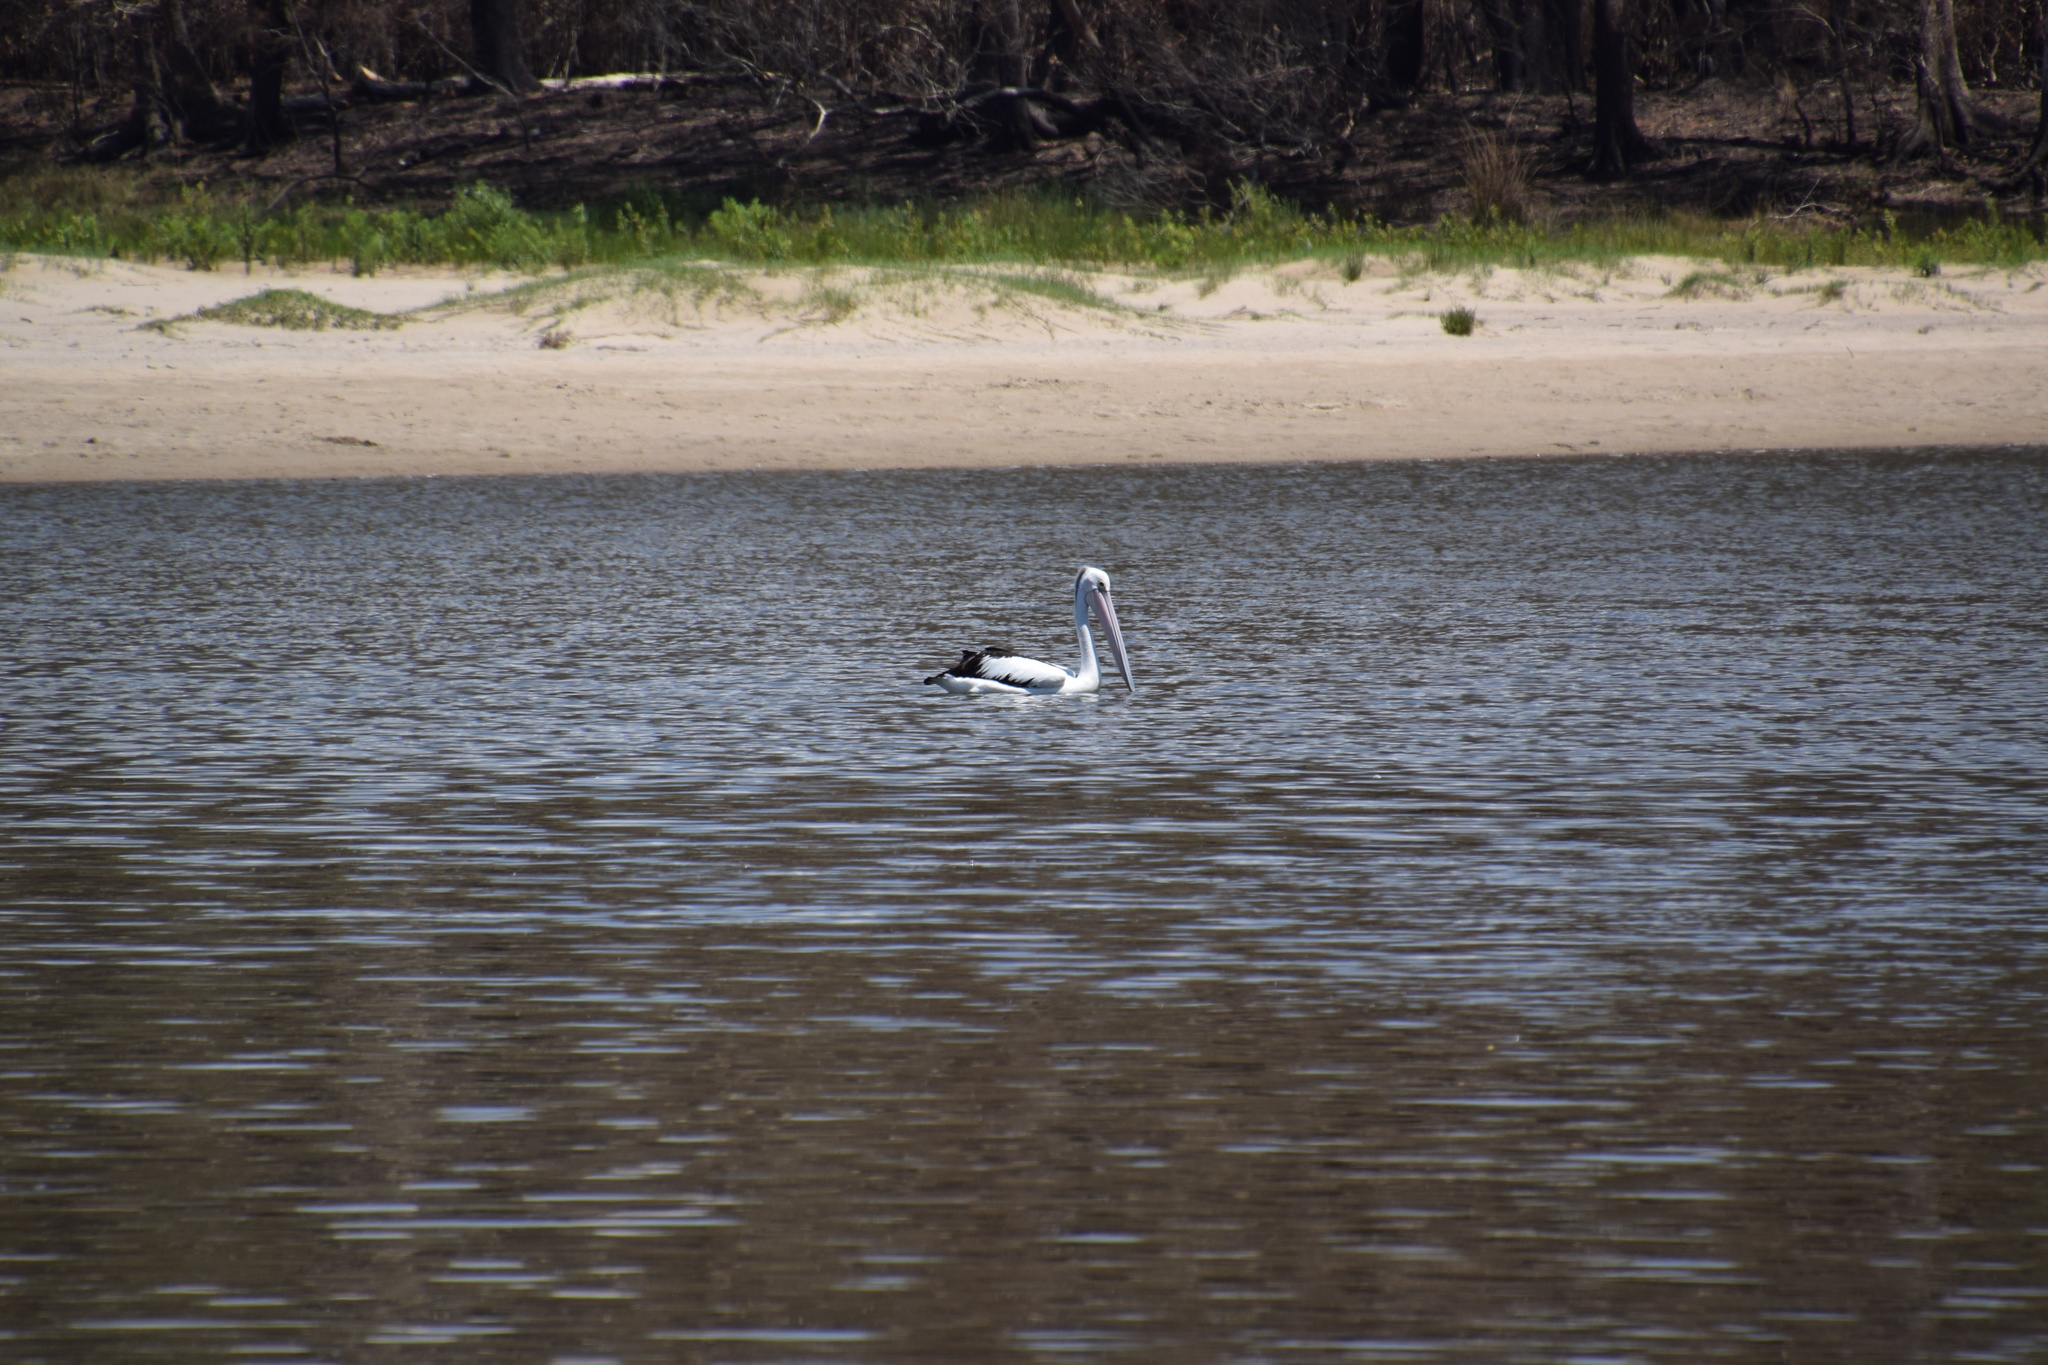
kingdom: Animalia
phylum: Chordata
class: Aves
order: Pelecaniformes
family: Pelecanidae
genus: Pelecanus
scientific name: Pelecanus conspicillatus
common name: Australian pelican
